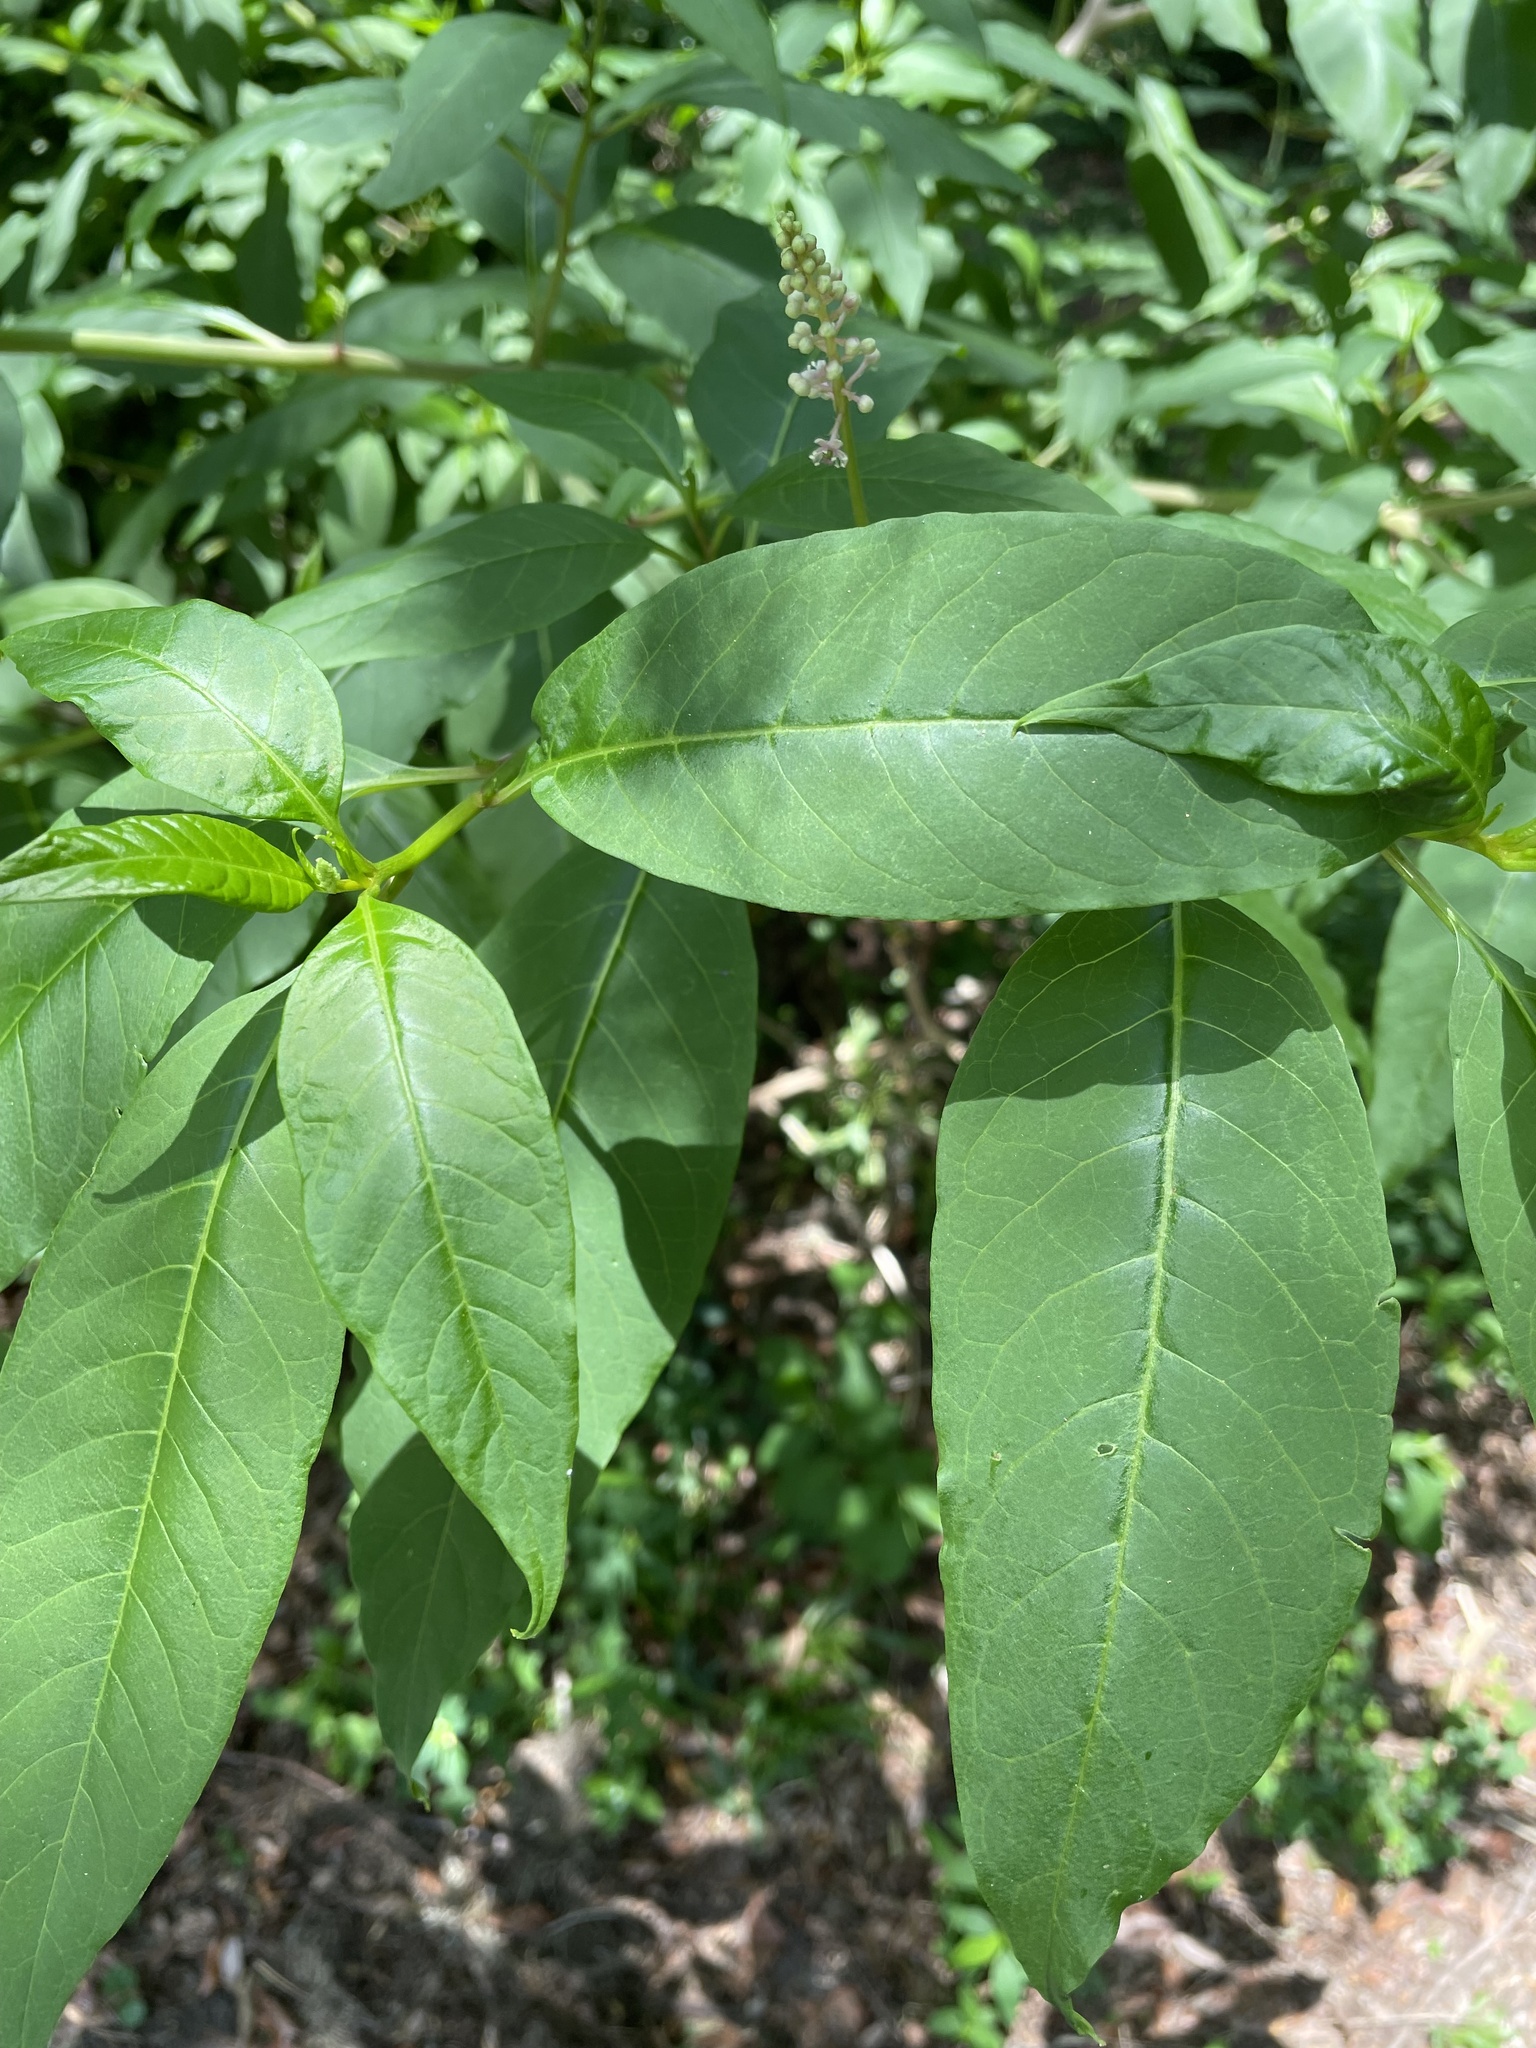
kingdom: Plantae
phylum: Tracheophyta
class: Magnoliopsida
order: Caryophyllales
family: Phytolaccaceae
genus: Phytolacca
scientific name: Phytolacca americana
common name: American pokeweed
